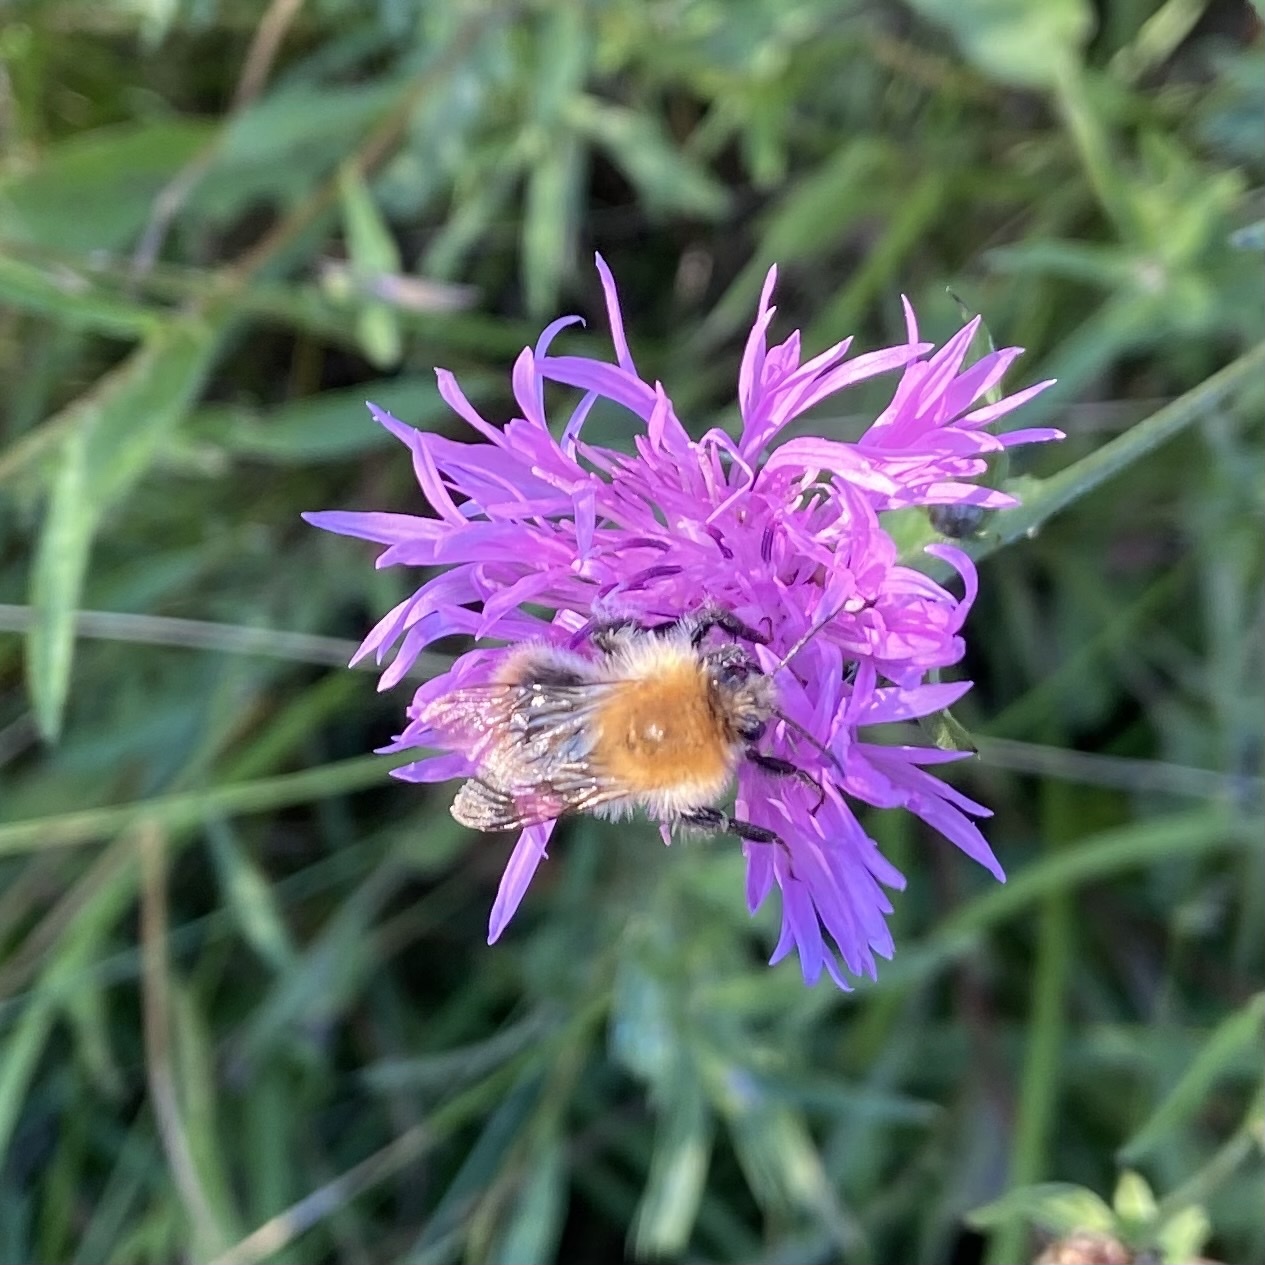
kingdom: Animalia
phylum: Arthropoda
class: Insecta
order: Hymenoptera
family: Apidae
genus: Bombus
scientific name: Bombus pascuorum
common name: Common carder bee
